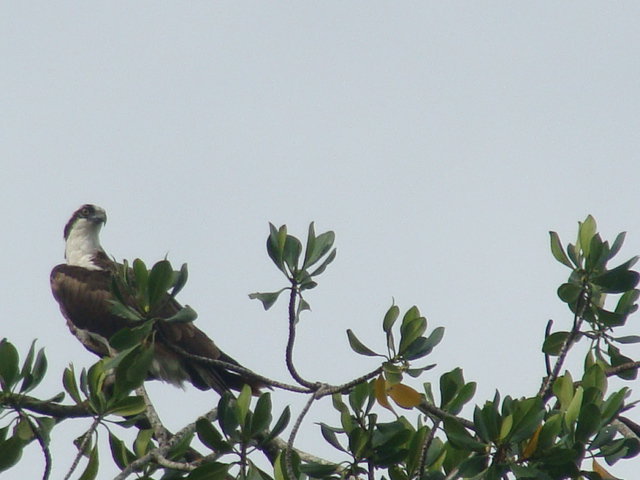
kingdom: Animalia
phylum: Chordata
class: Aves
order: Accipitriformes
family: Pandionidae
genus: Pandion
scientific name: Pandion haliaetus
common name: Osprey
